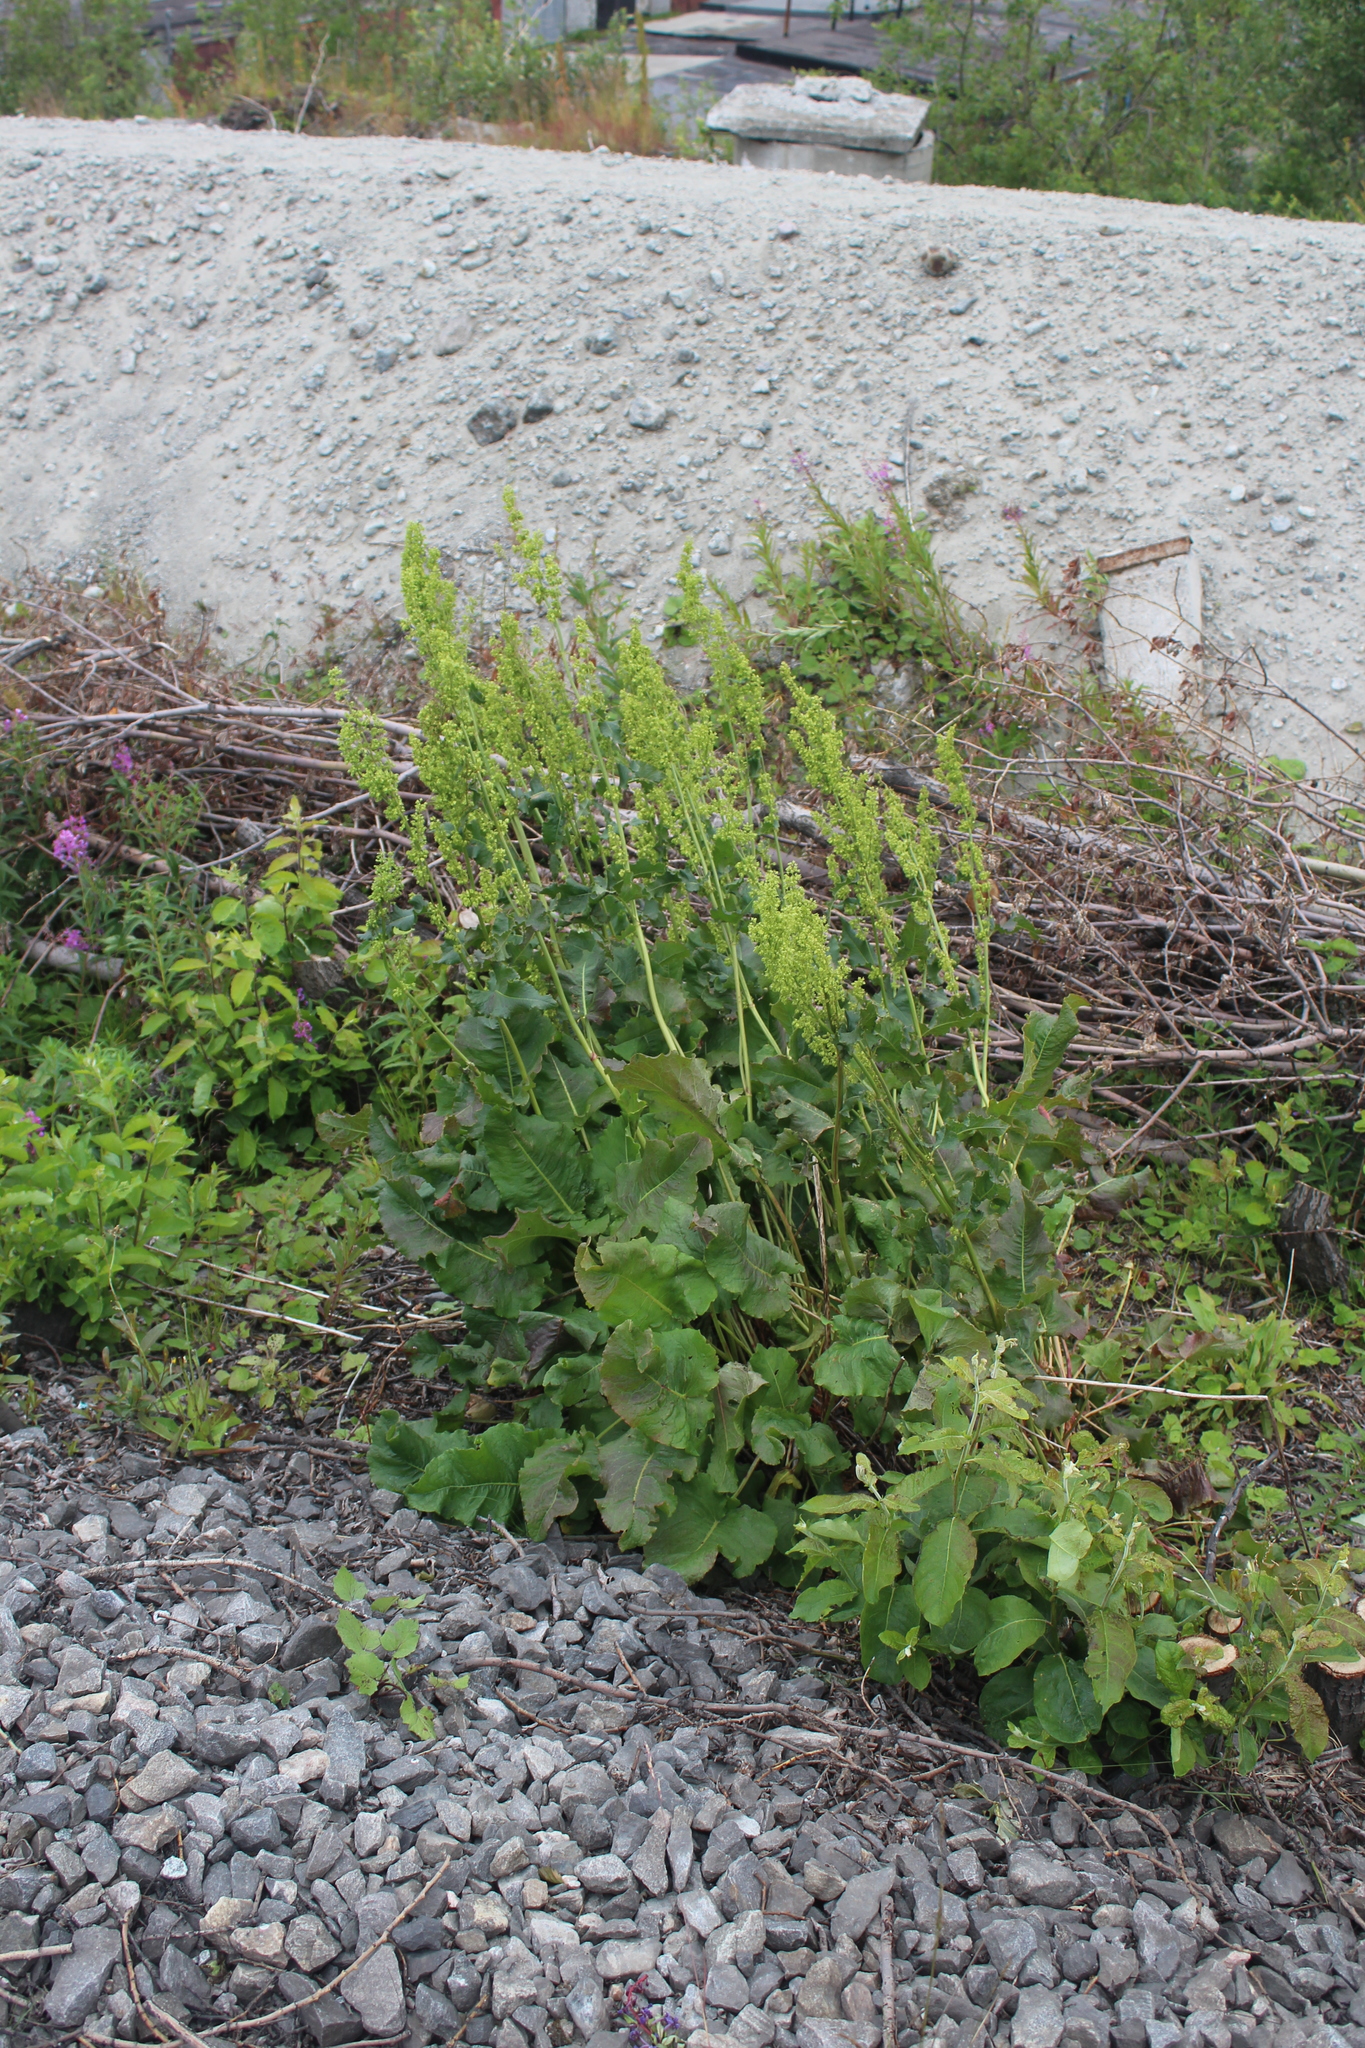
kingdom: Plantae
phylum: Tracheophyta
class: Magnoliopsida
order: Caryophyllales
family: Polygonaceae
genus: Rumex
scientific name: Rumex confertus
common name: Russian dock
